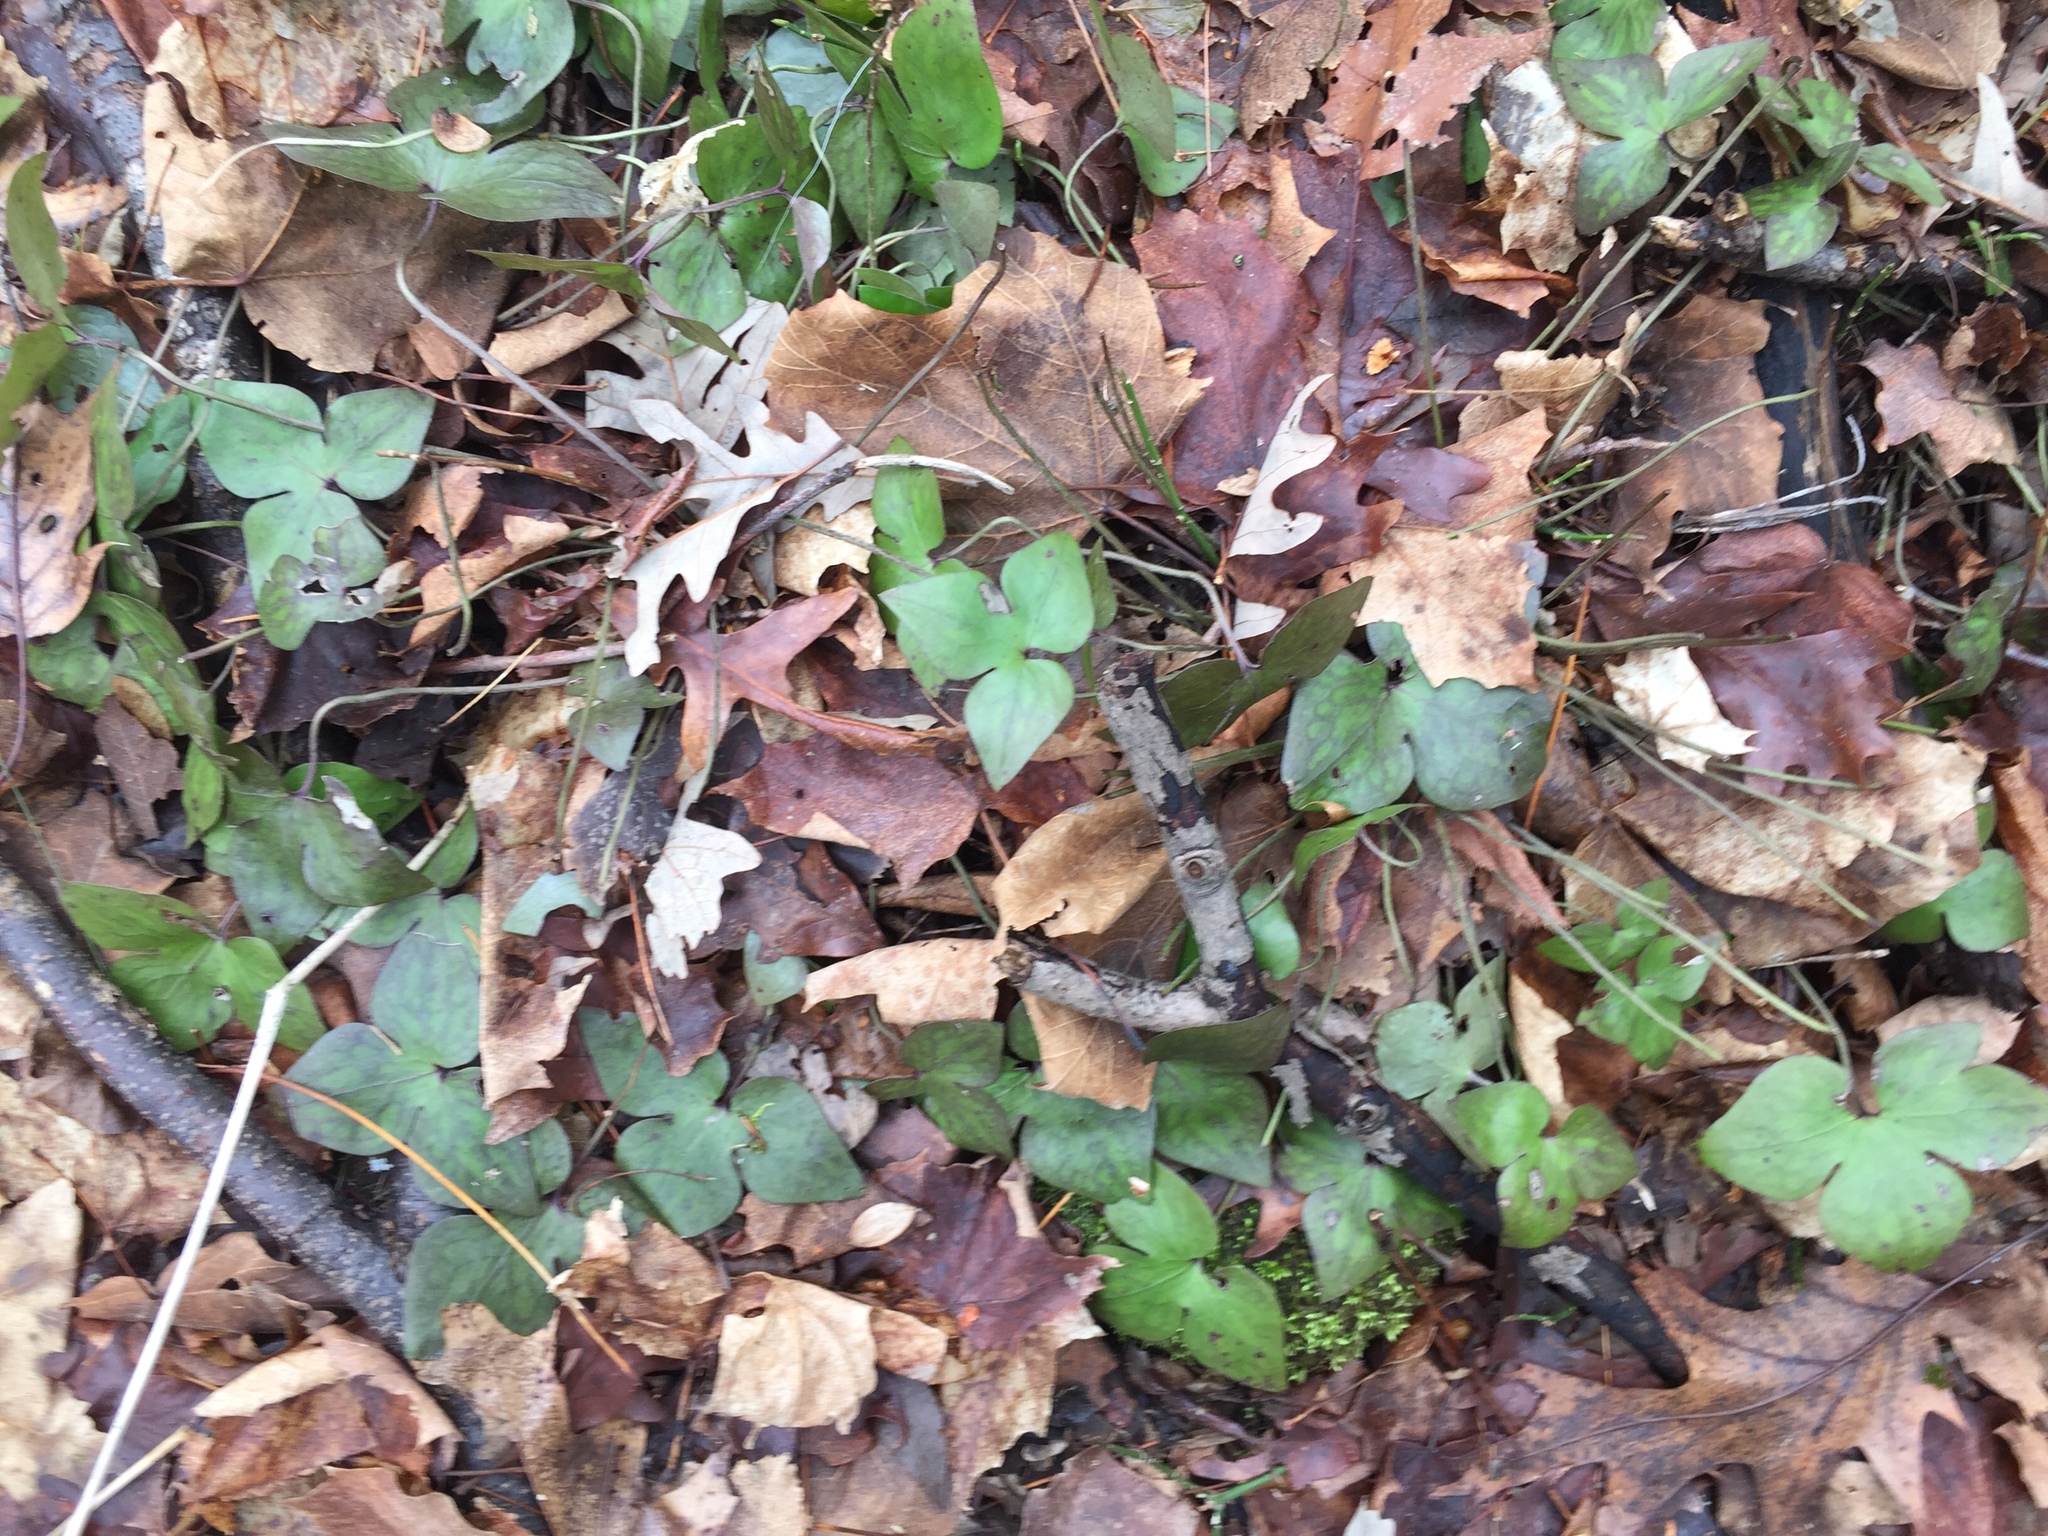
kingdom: Plantae
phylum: Tracheophyta
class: Magnoliopsida
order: Ranunculales
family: Ranunculaceae
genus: Hepatica
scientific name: Hepatica acutiloba
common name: Sharp-lobed hepatica
